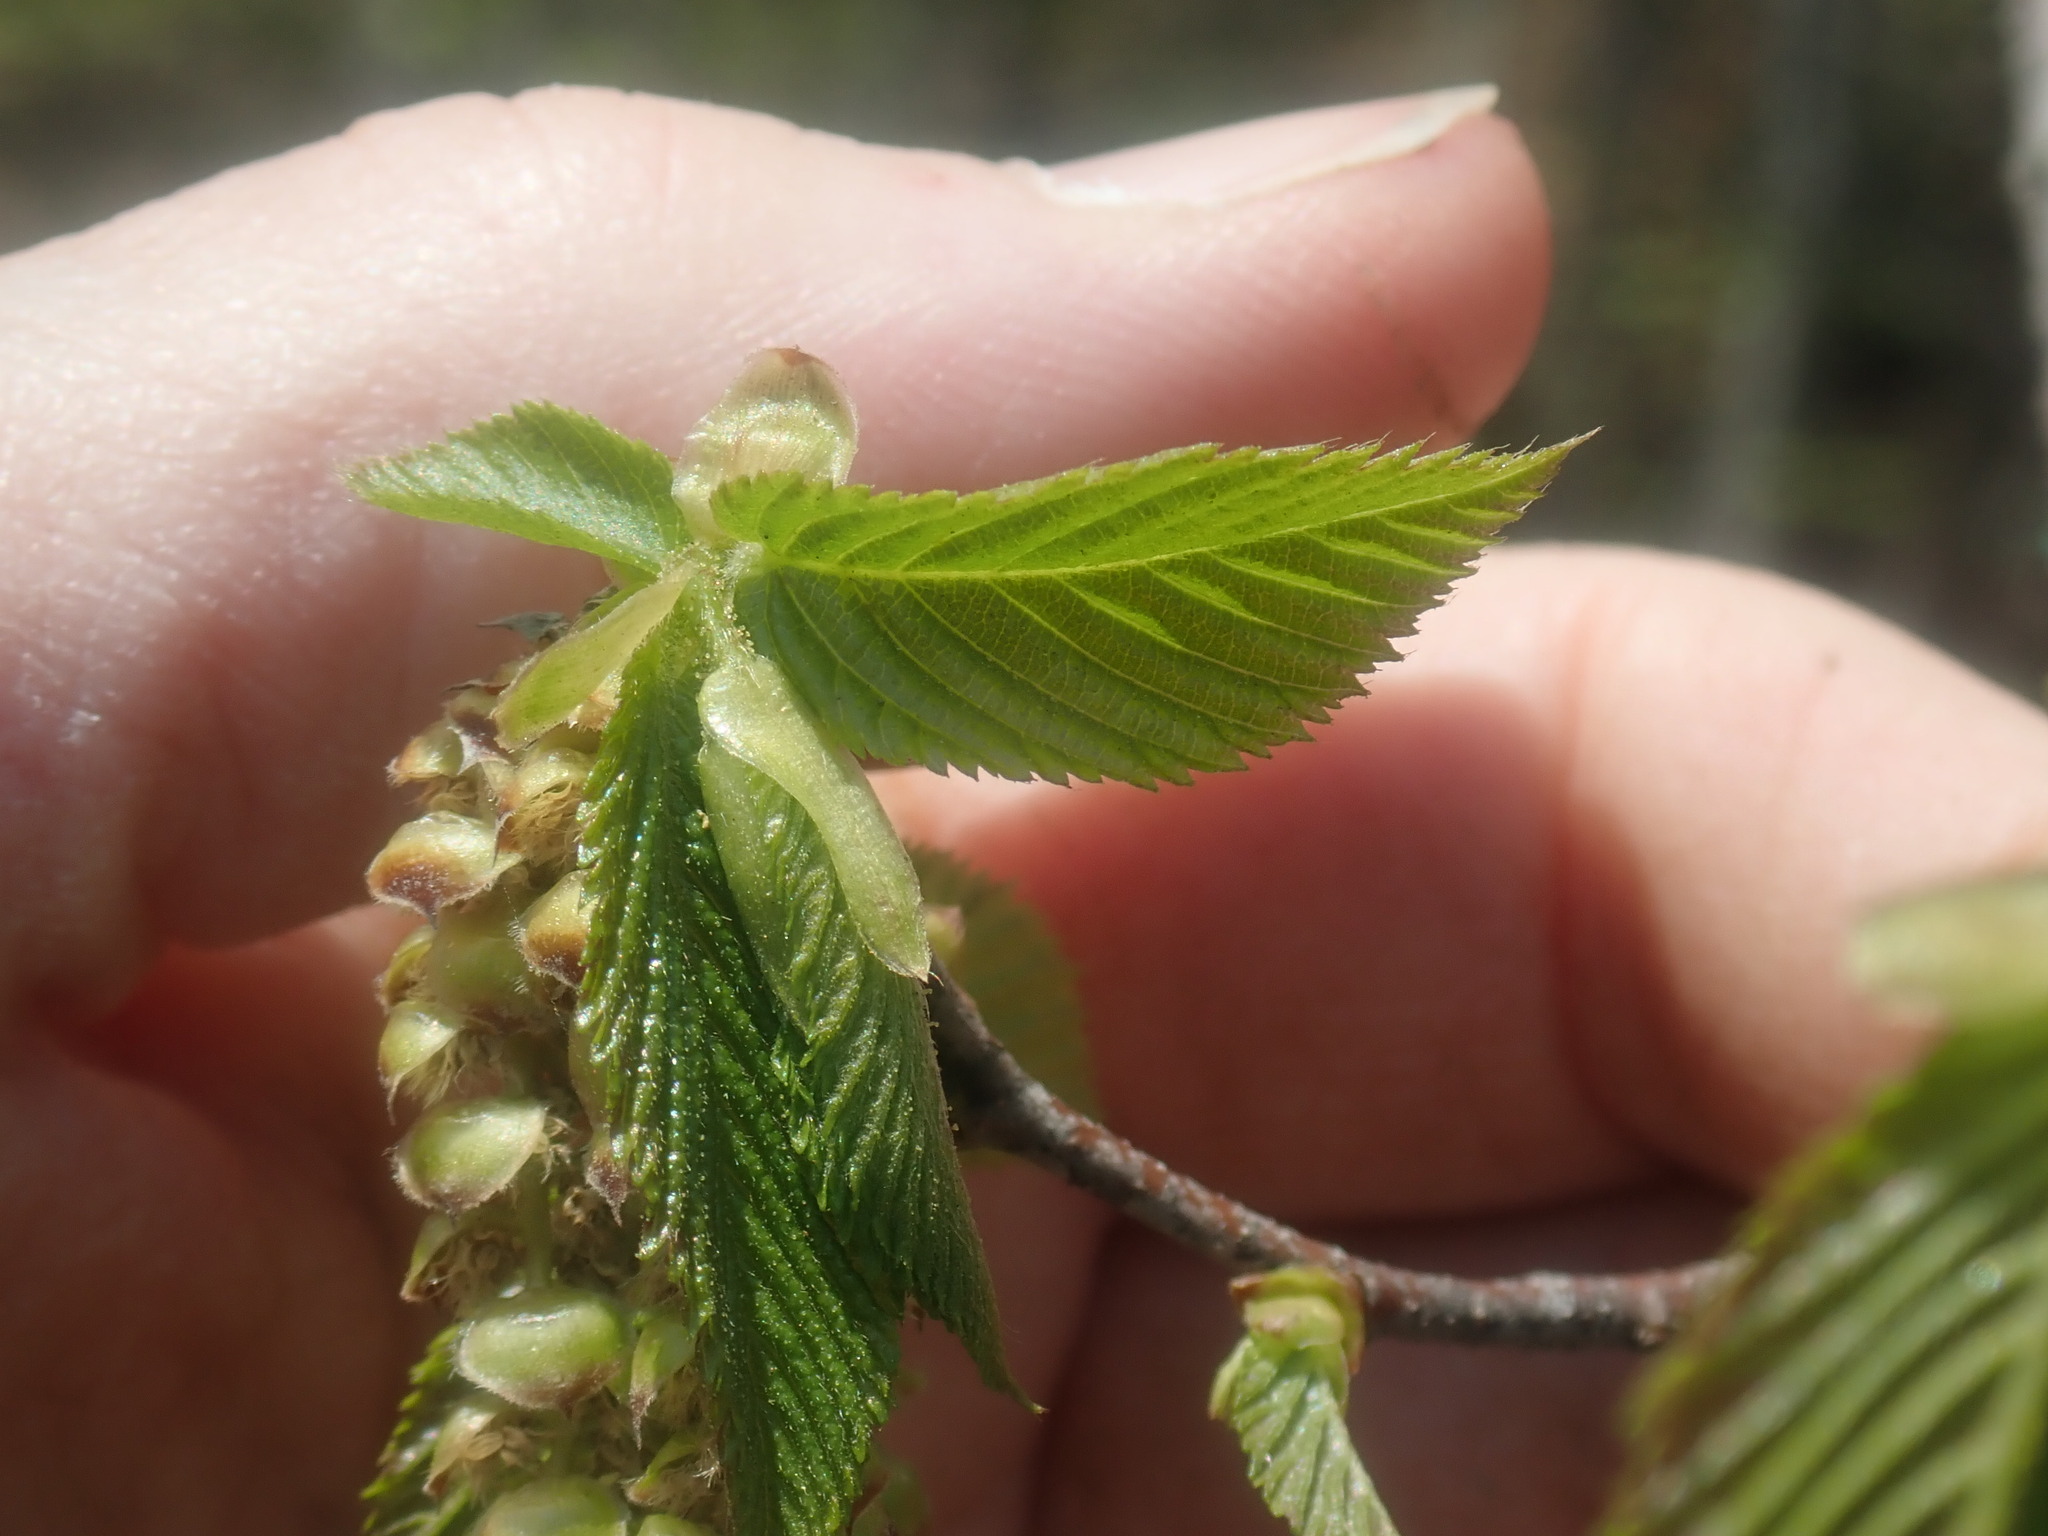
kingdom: Plantae
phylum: Tracheophyta
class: Magnoliopsida
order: Fagales
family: Betulaceae
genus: Ostrya
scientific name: Ostrya virginiana
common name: Ironwood
